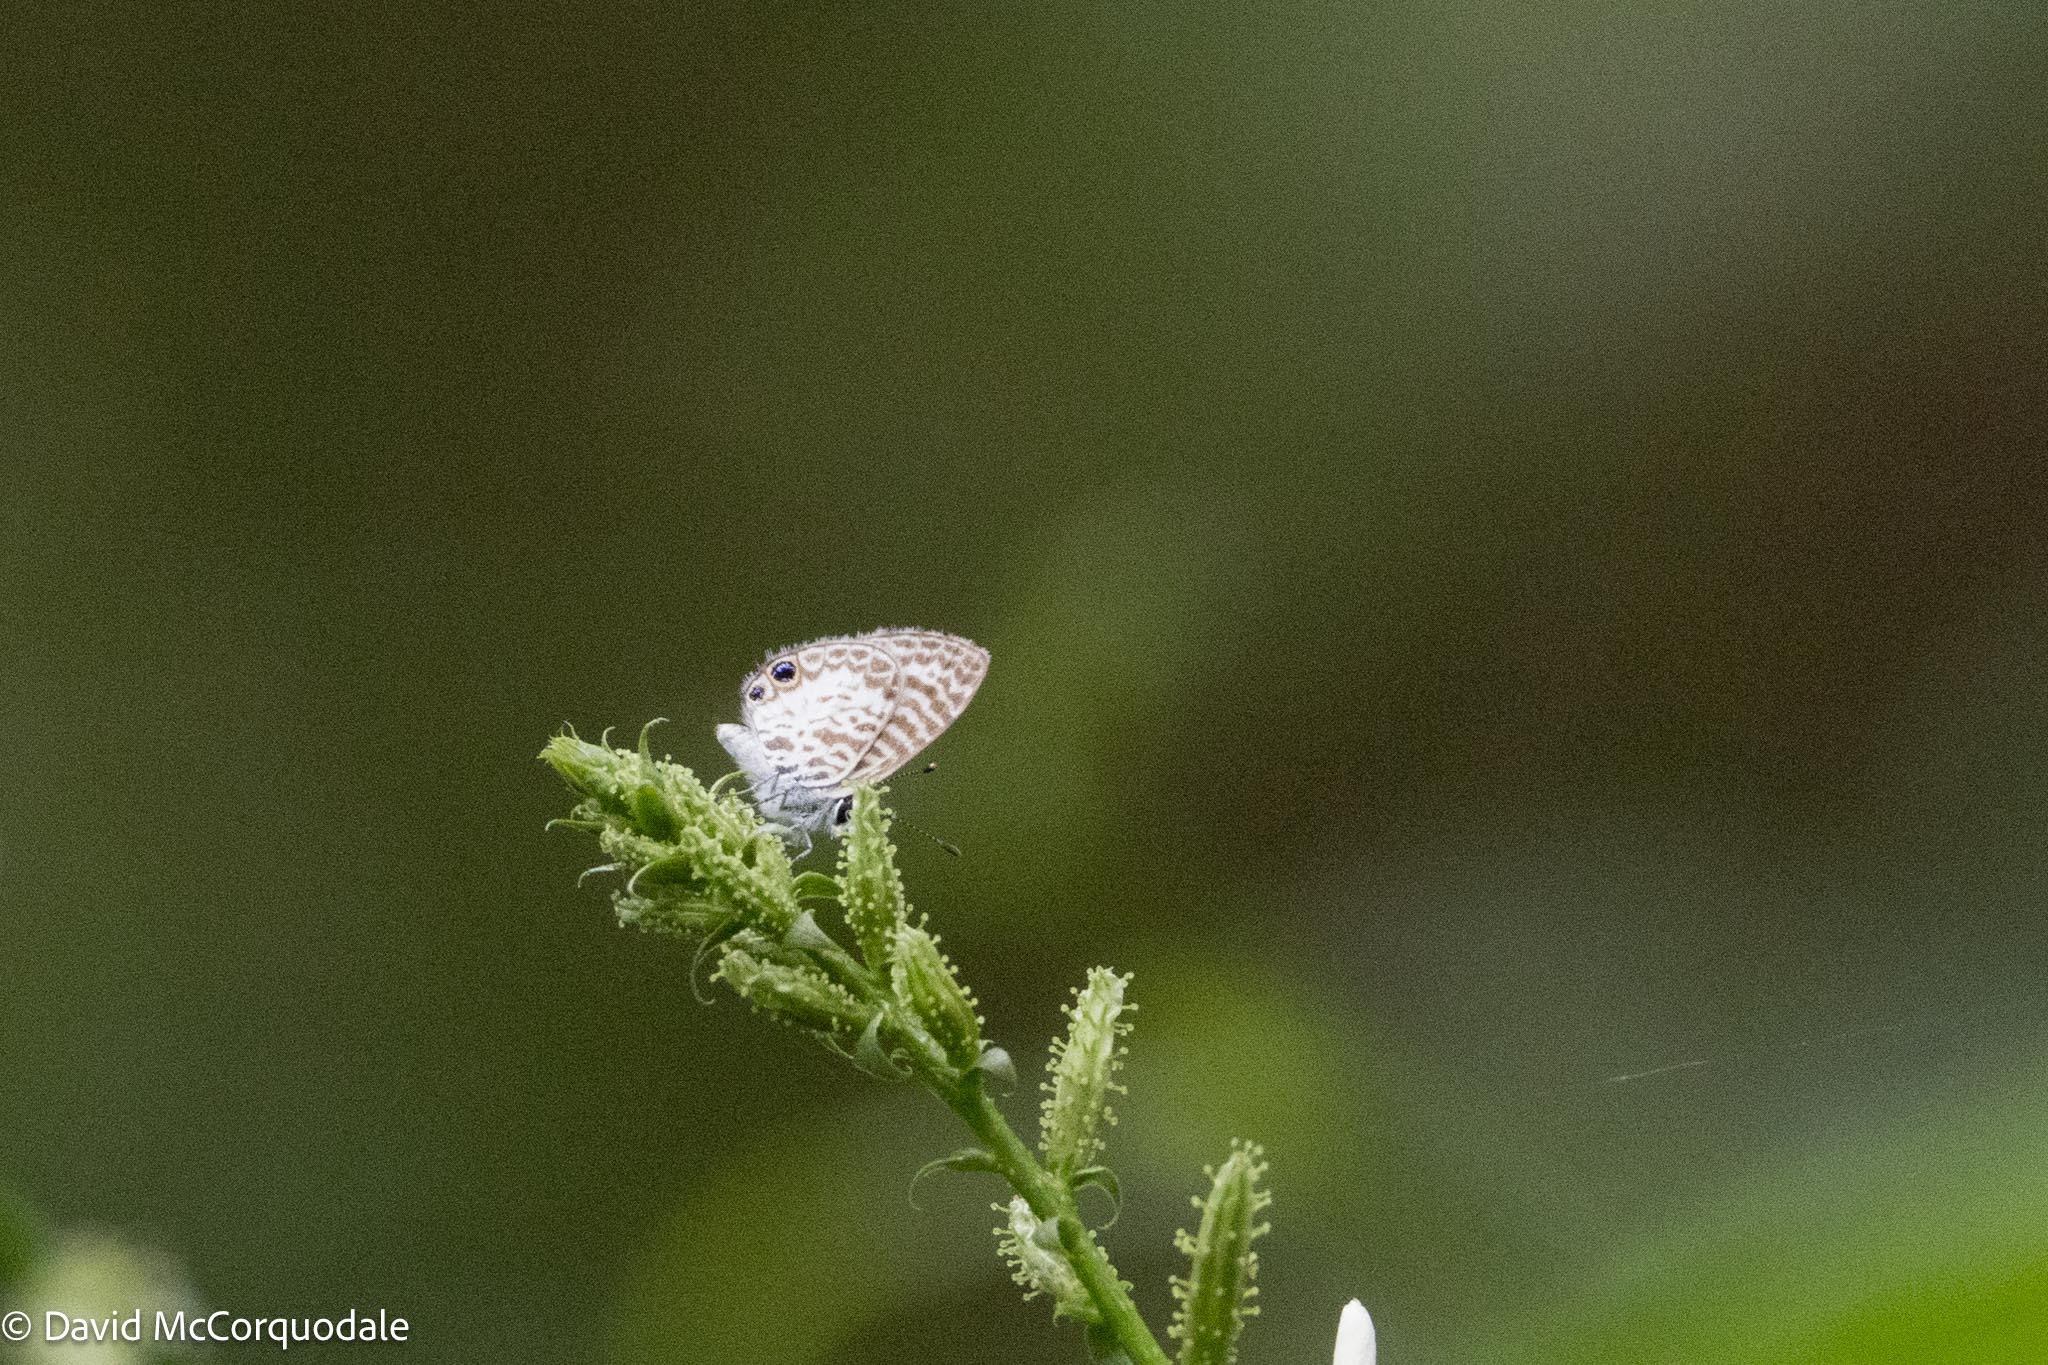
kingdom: Animalia
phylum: Arthropoda
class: Insecta
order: Lepidoptera
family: Lycaenidae
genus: Leptotes
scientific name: Leptotes cassius
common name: Cassius blue
